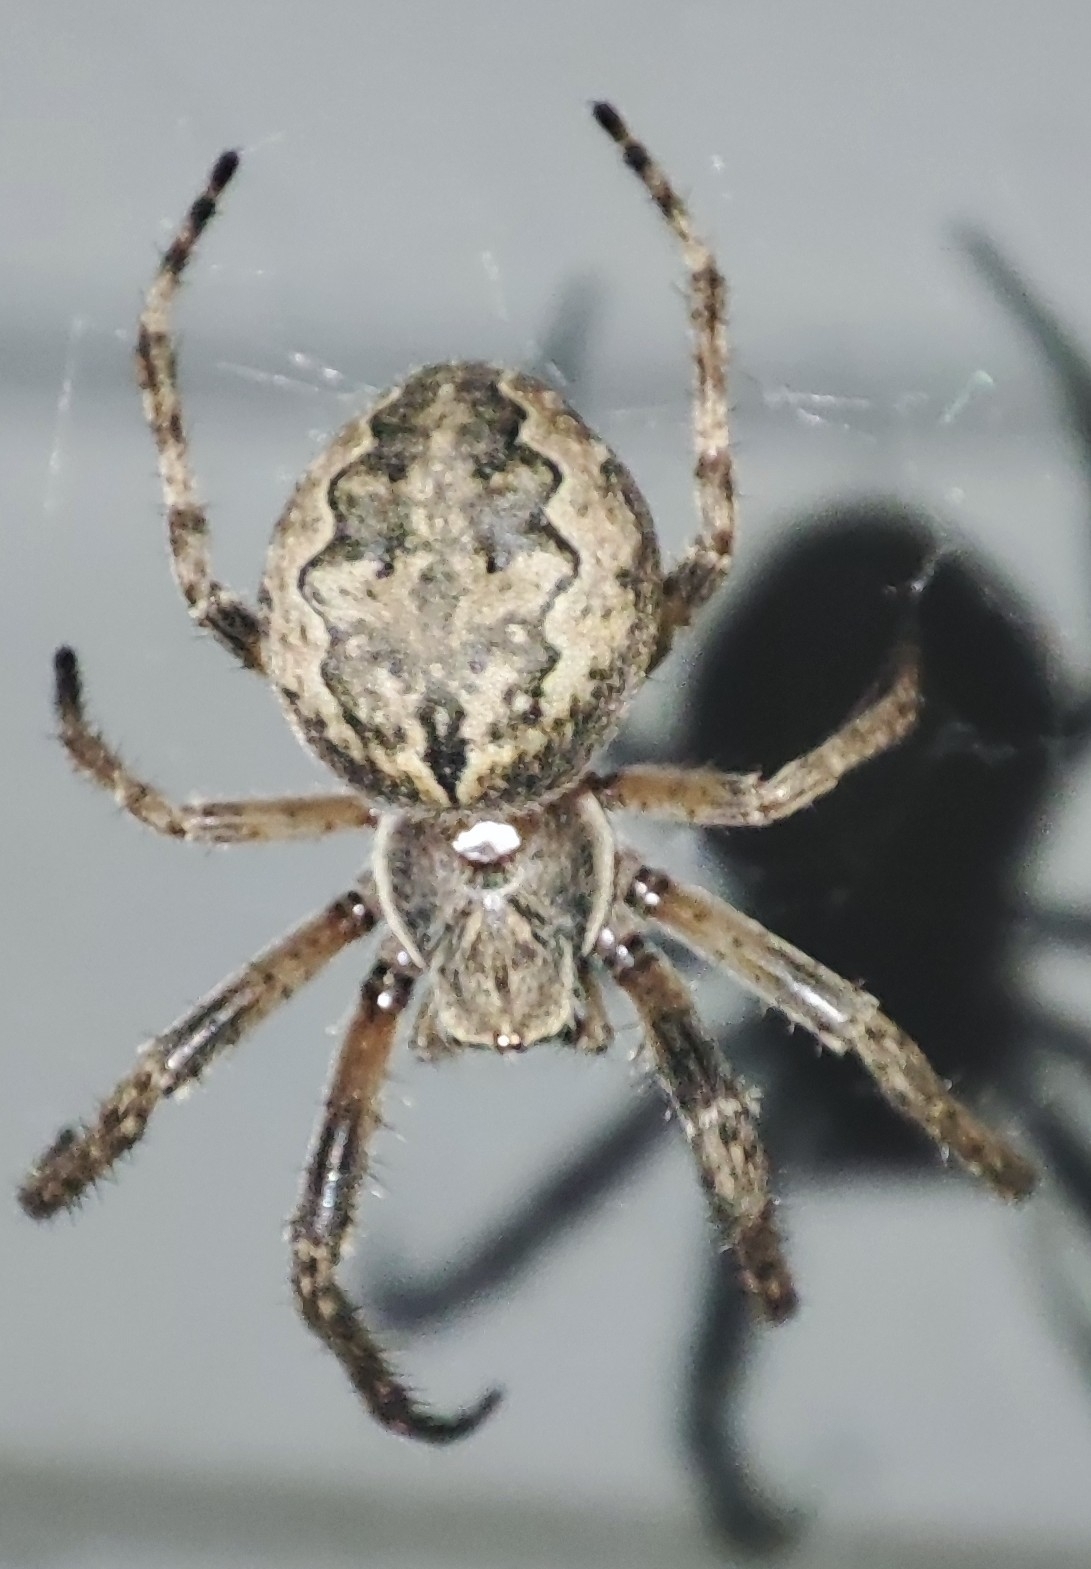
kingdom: Animalia
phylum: Arthropoda
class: Arachnida
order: Araneae
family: Araneidae
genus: Larinioides
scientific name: Larinioides ixobolus
